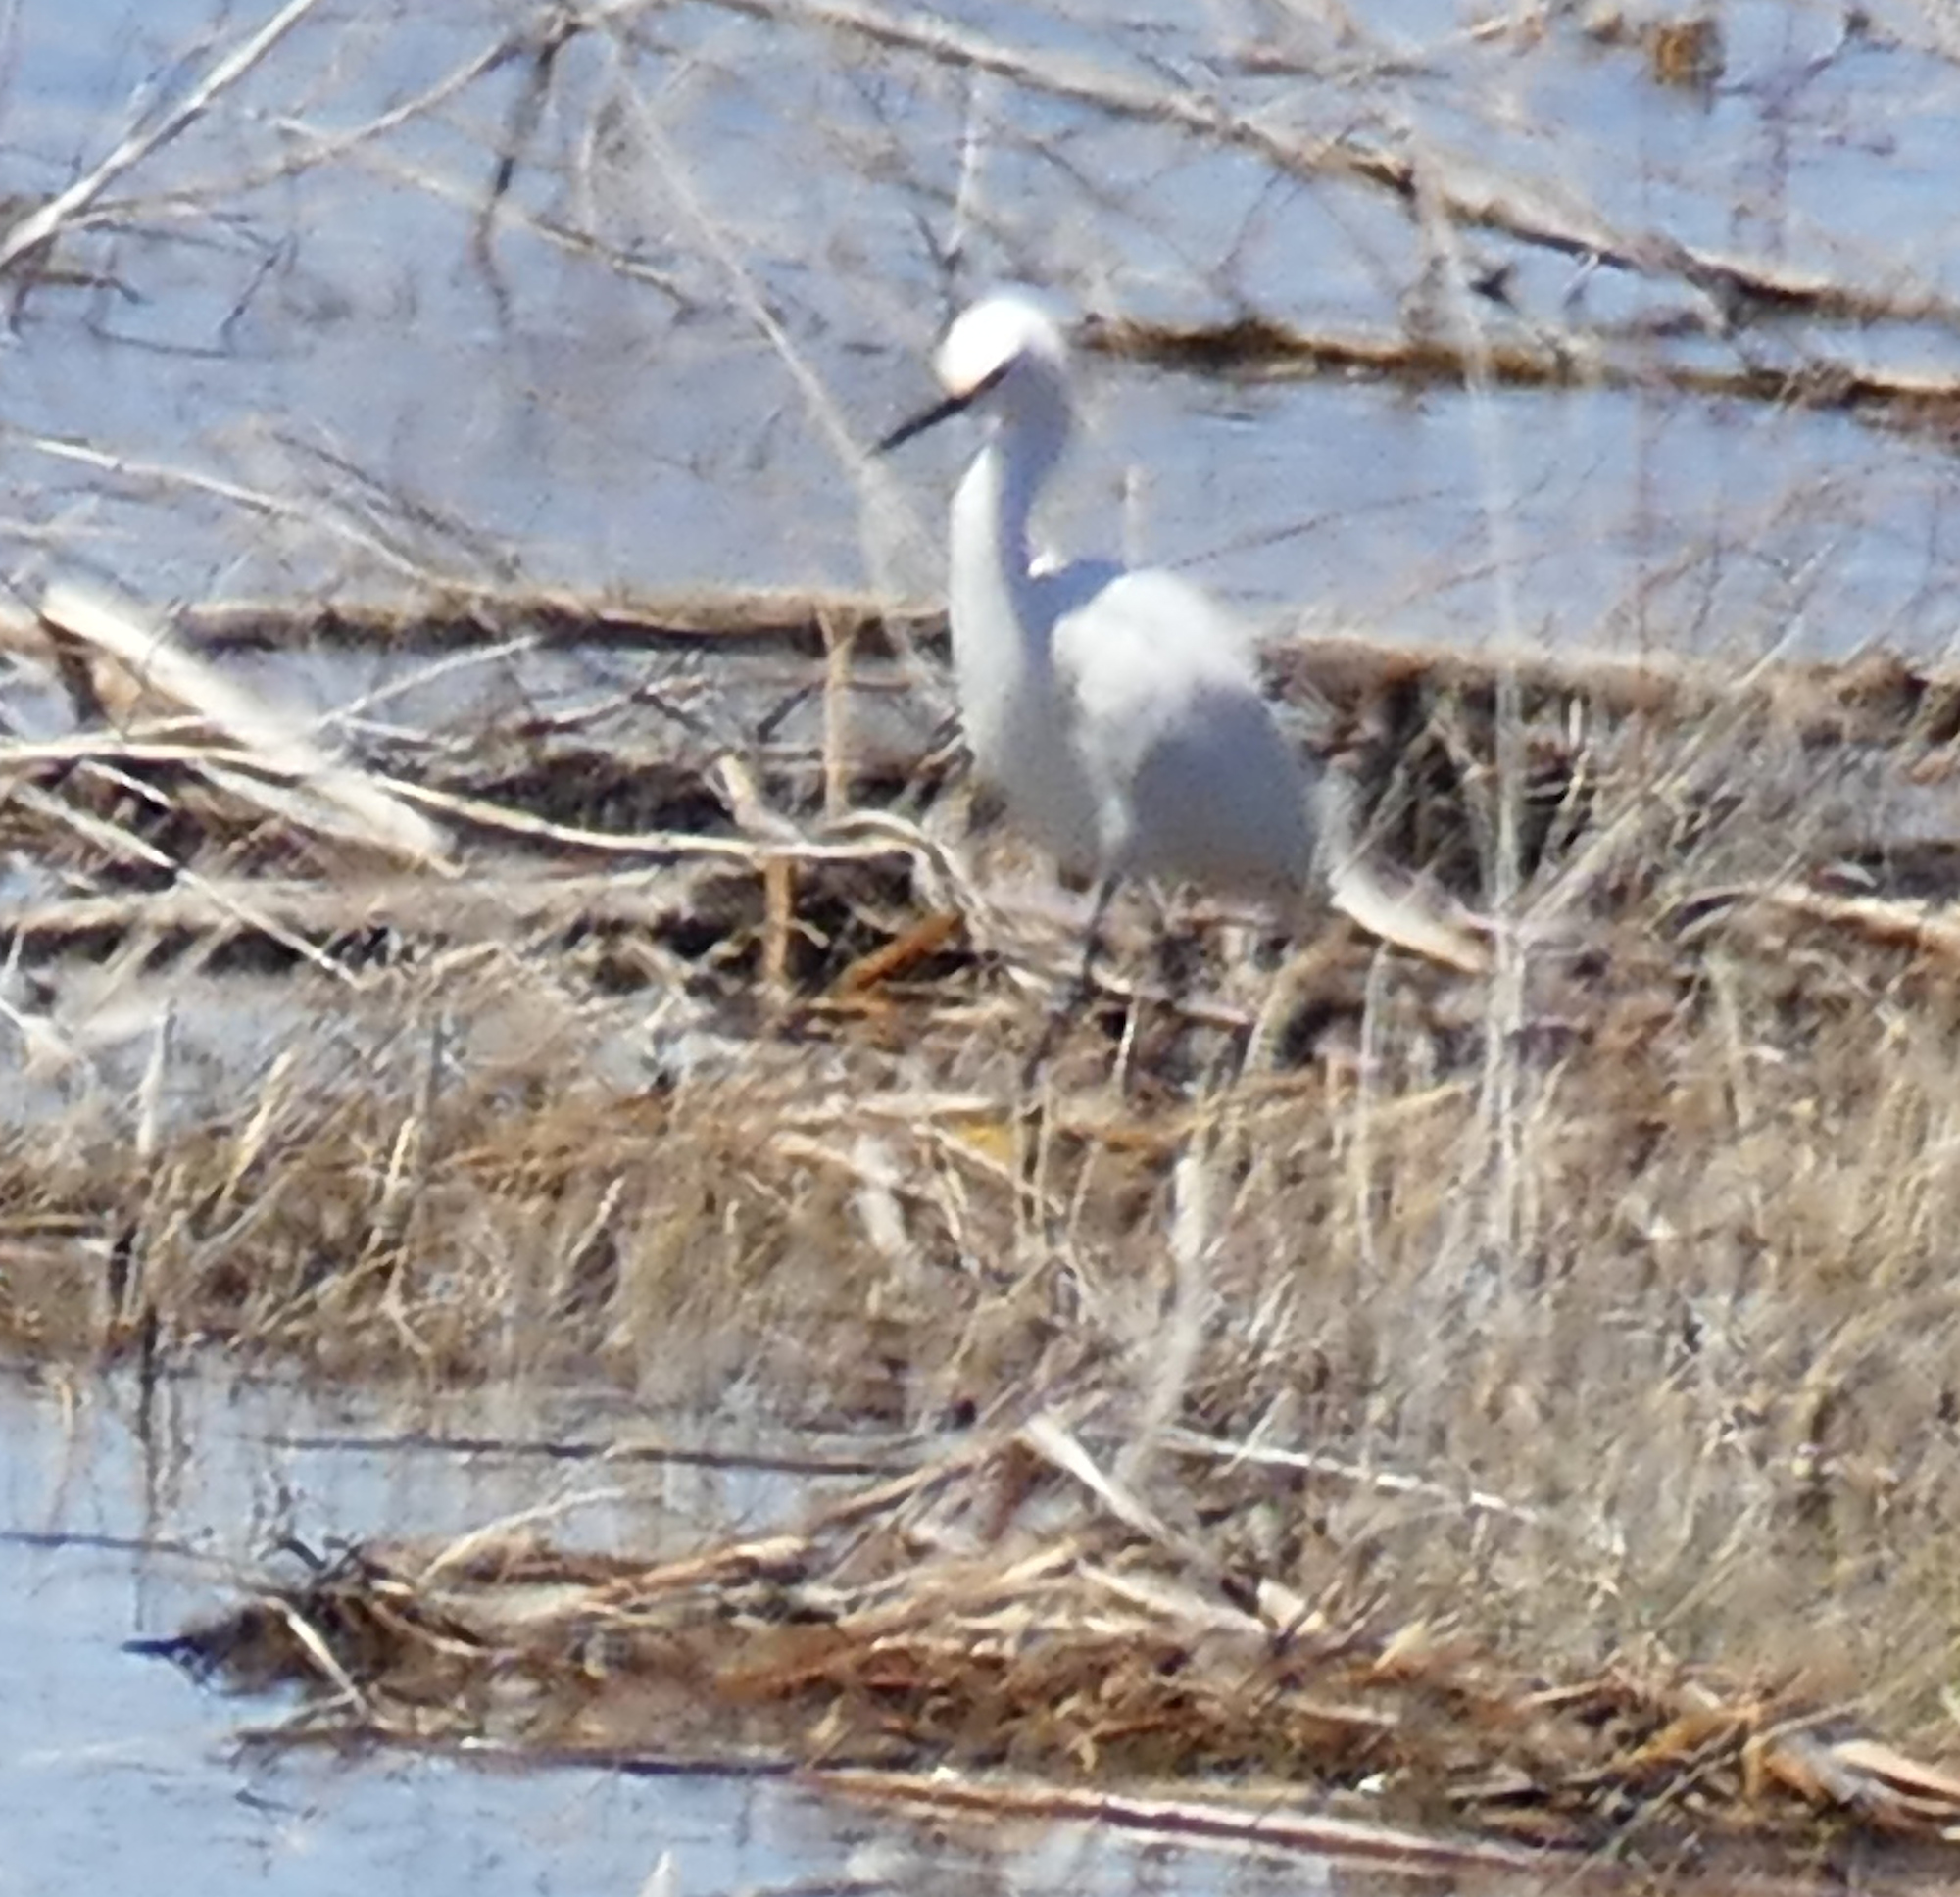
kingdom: Animalia
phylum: Chordata
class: Aves
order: Pelecaniformes
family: Ardeidae
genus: Egretta
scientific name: Egretta thula
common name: Snowy egret
